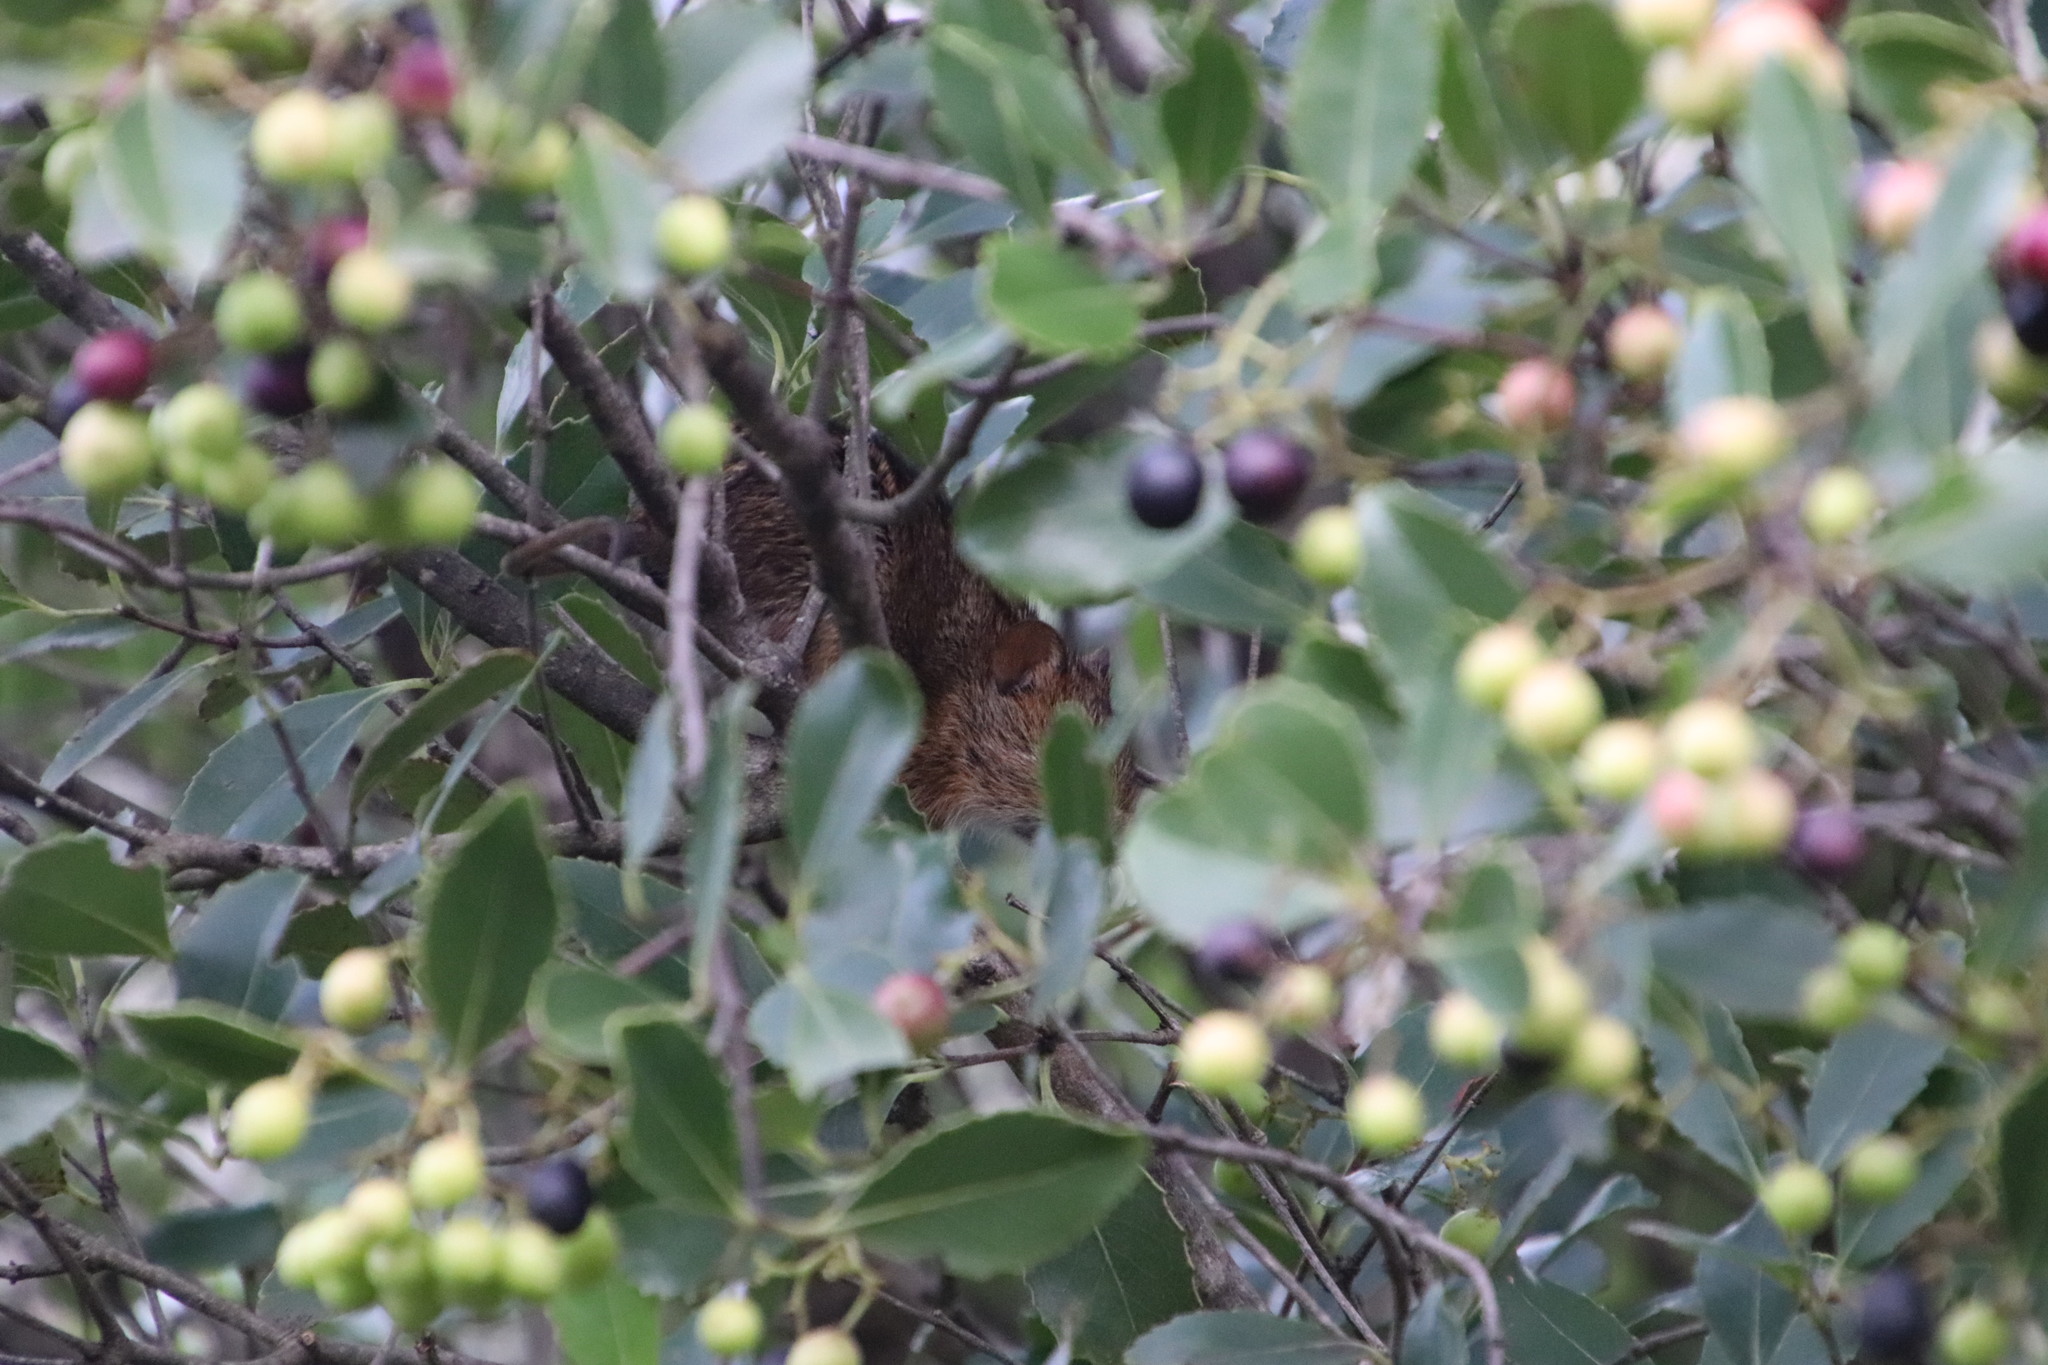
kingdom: Plantae
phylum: Tracheophyta
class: Magnoliopsida
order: Celastrales
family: Celastraceae
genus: Cassine
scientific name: Cassine peragua
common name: Cape saffron
